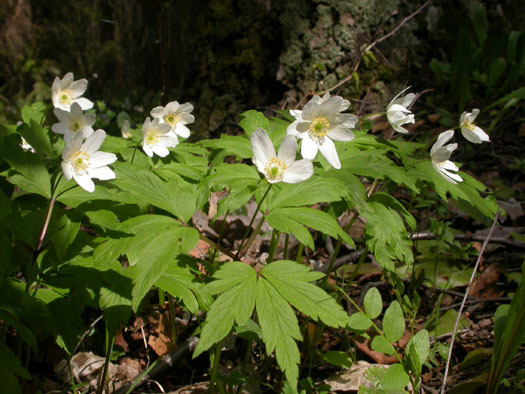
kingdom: Plantae
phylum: Tracheophyta
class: Magnoliopsida
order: Ranunculales
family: Ranunculaceae
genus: Anemone
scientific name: Anemone nemorosa
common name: Wood anemone
